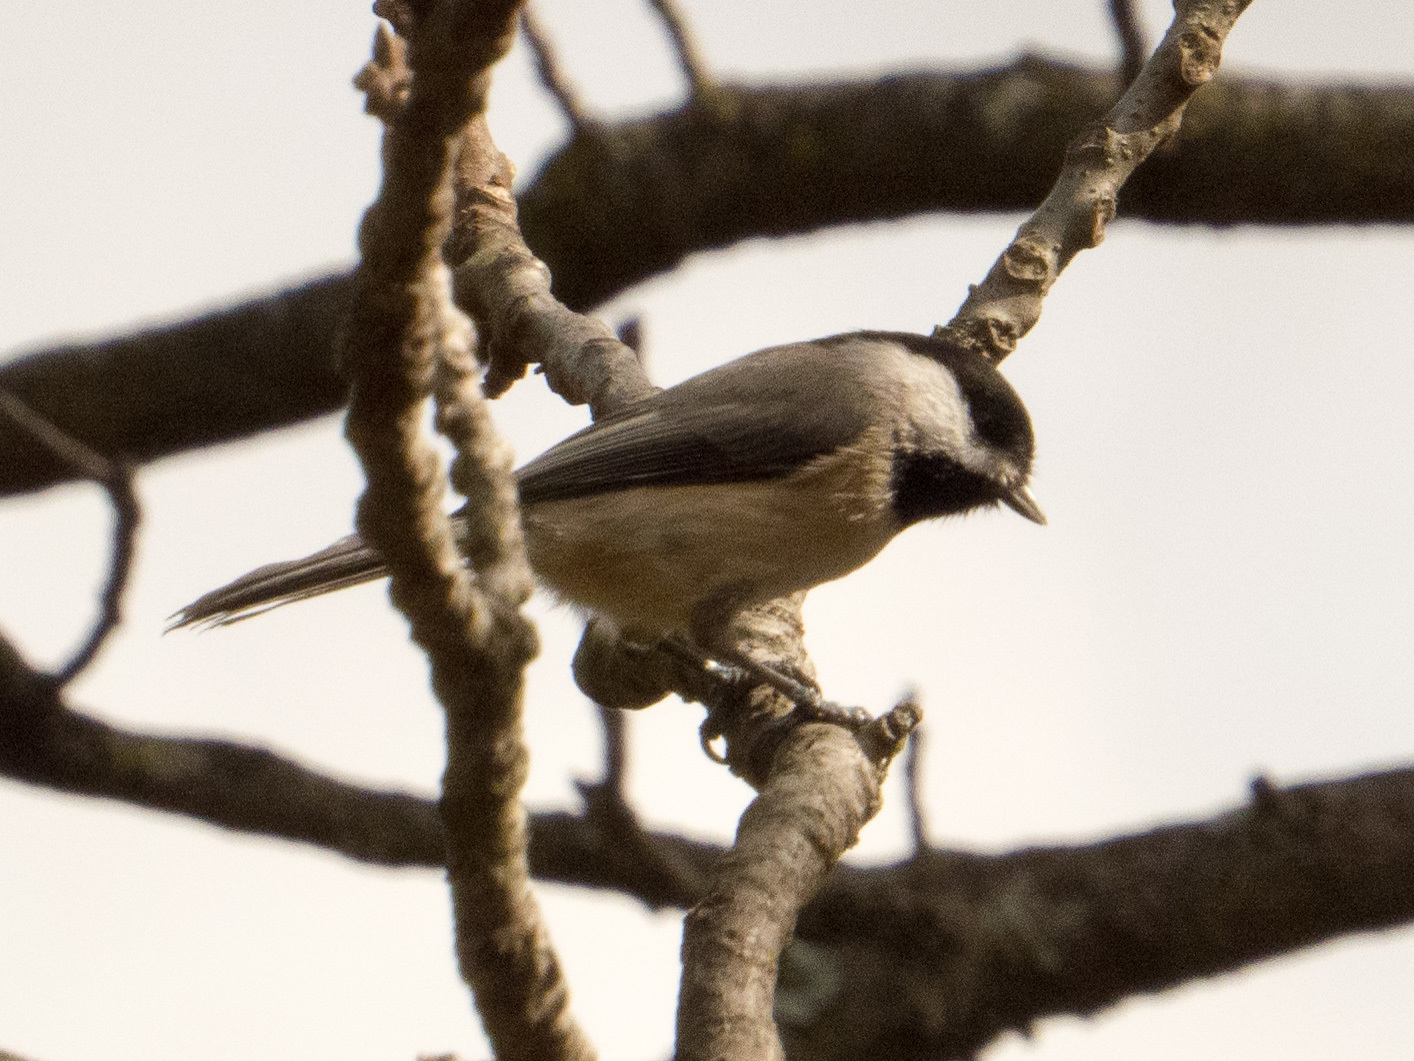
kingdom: Animalia
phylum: Chordata
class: Aves
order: Passeriformes
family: Paridae
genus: Poecile
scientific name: Poecile carolinensis
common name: Carolina chickadee
